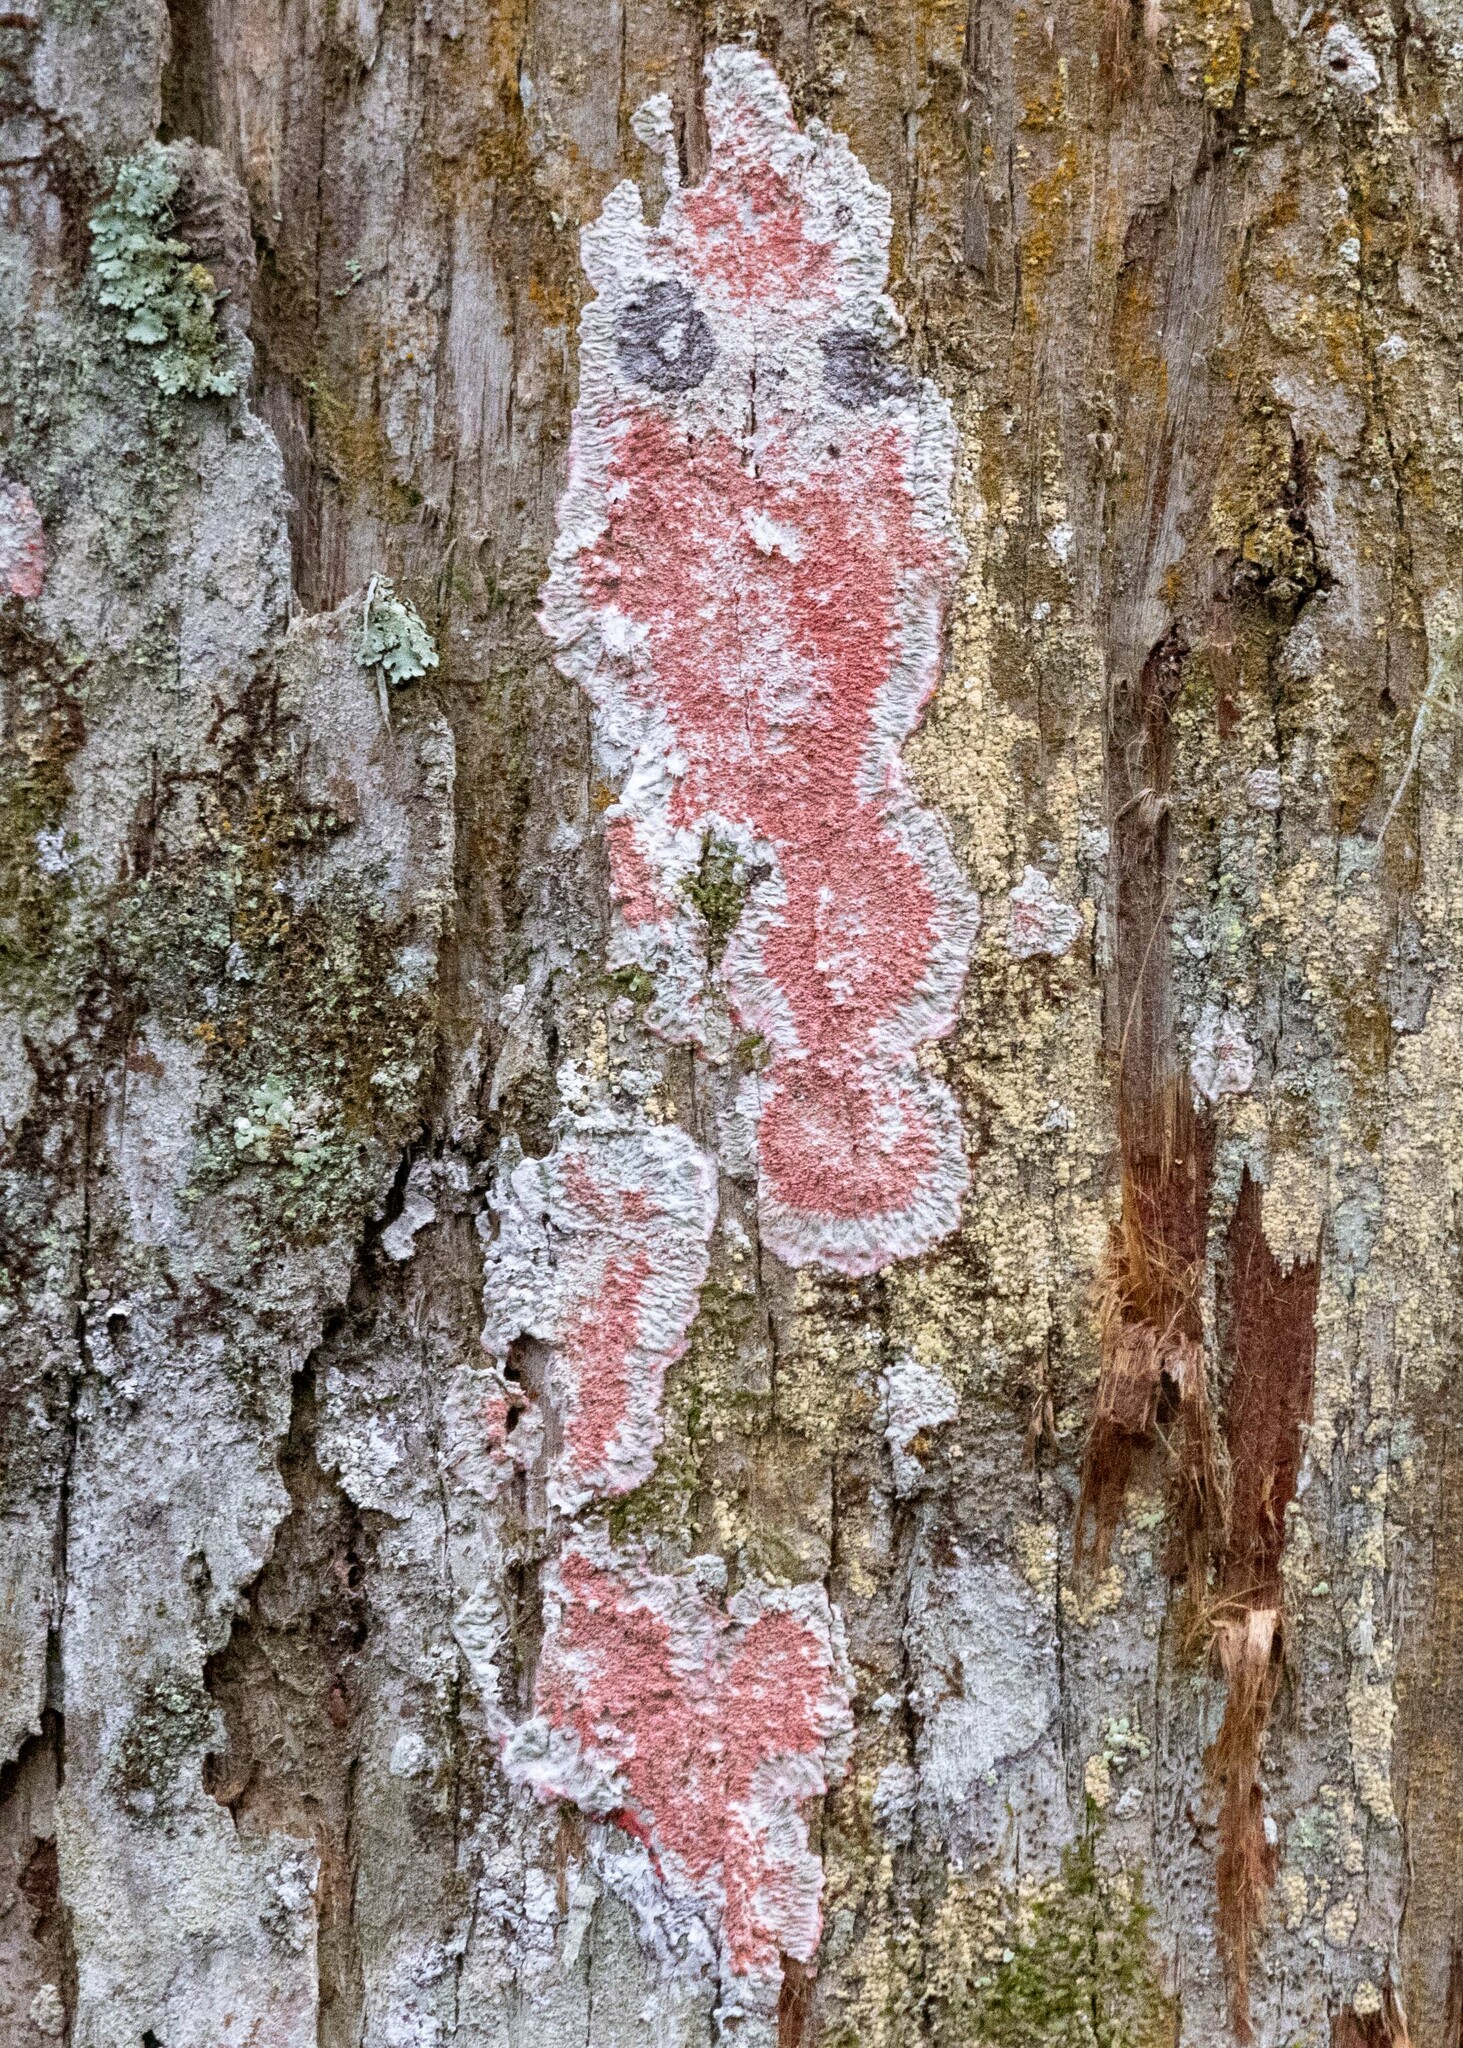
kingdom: Fungi
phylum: Ascomycota
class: Arthoniomycetes
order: Arthoniales
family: Arthoniaceae
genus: Herpothallon
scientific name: Herpothallon rubrocinctum
